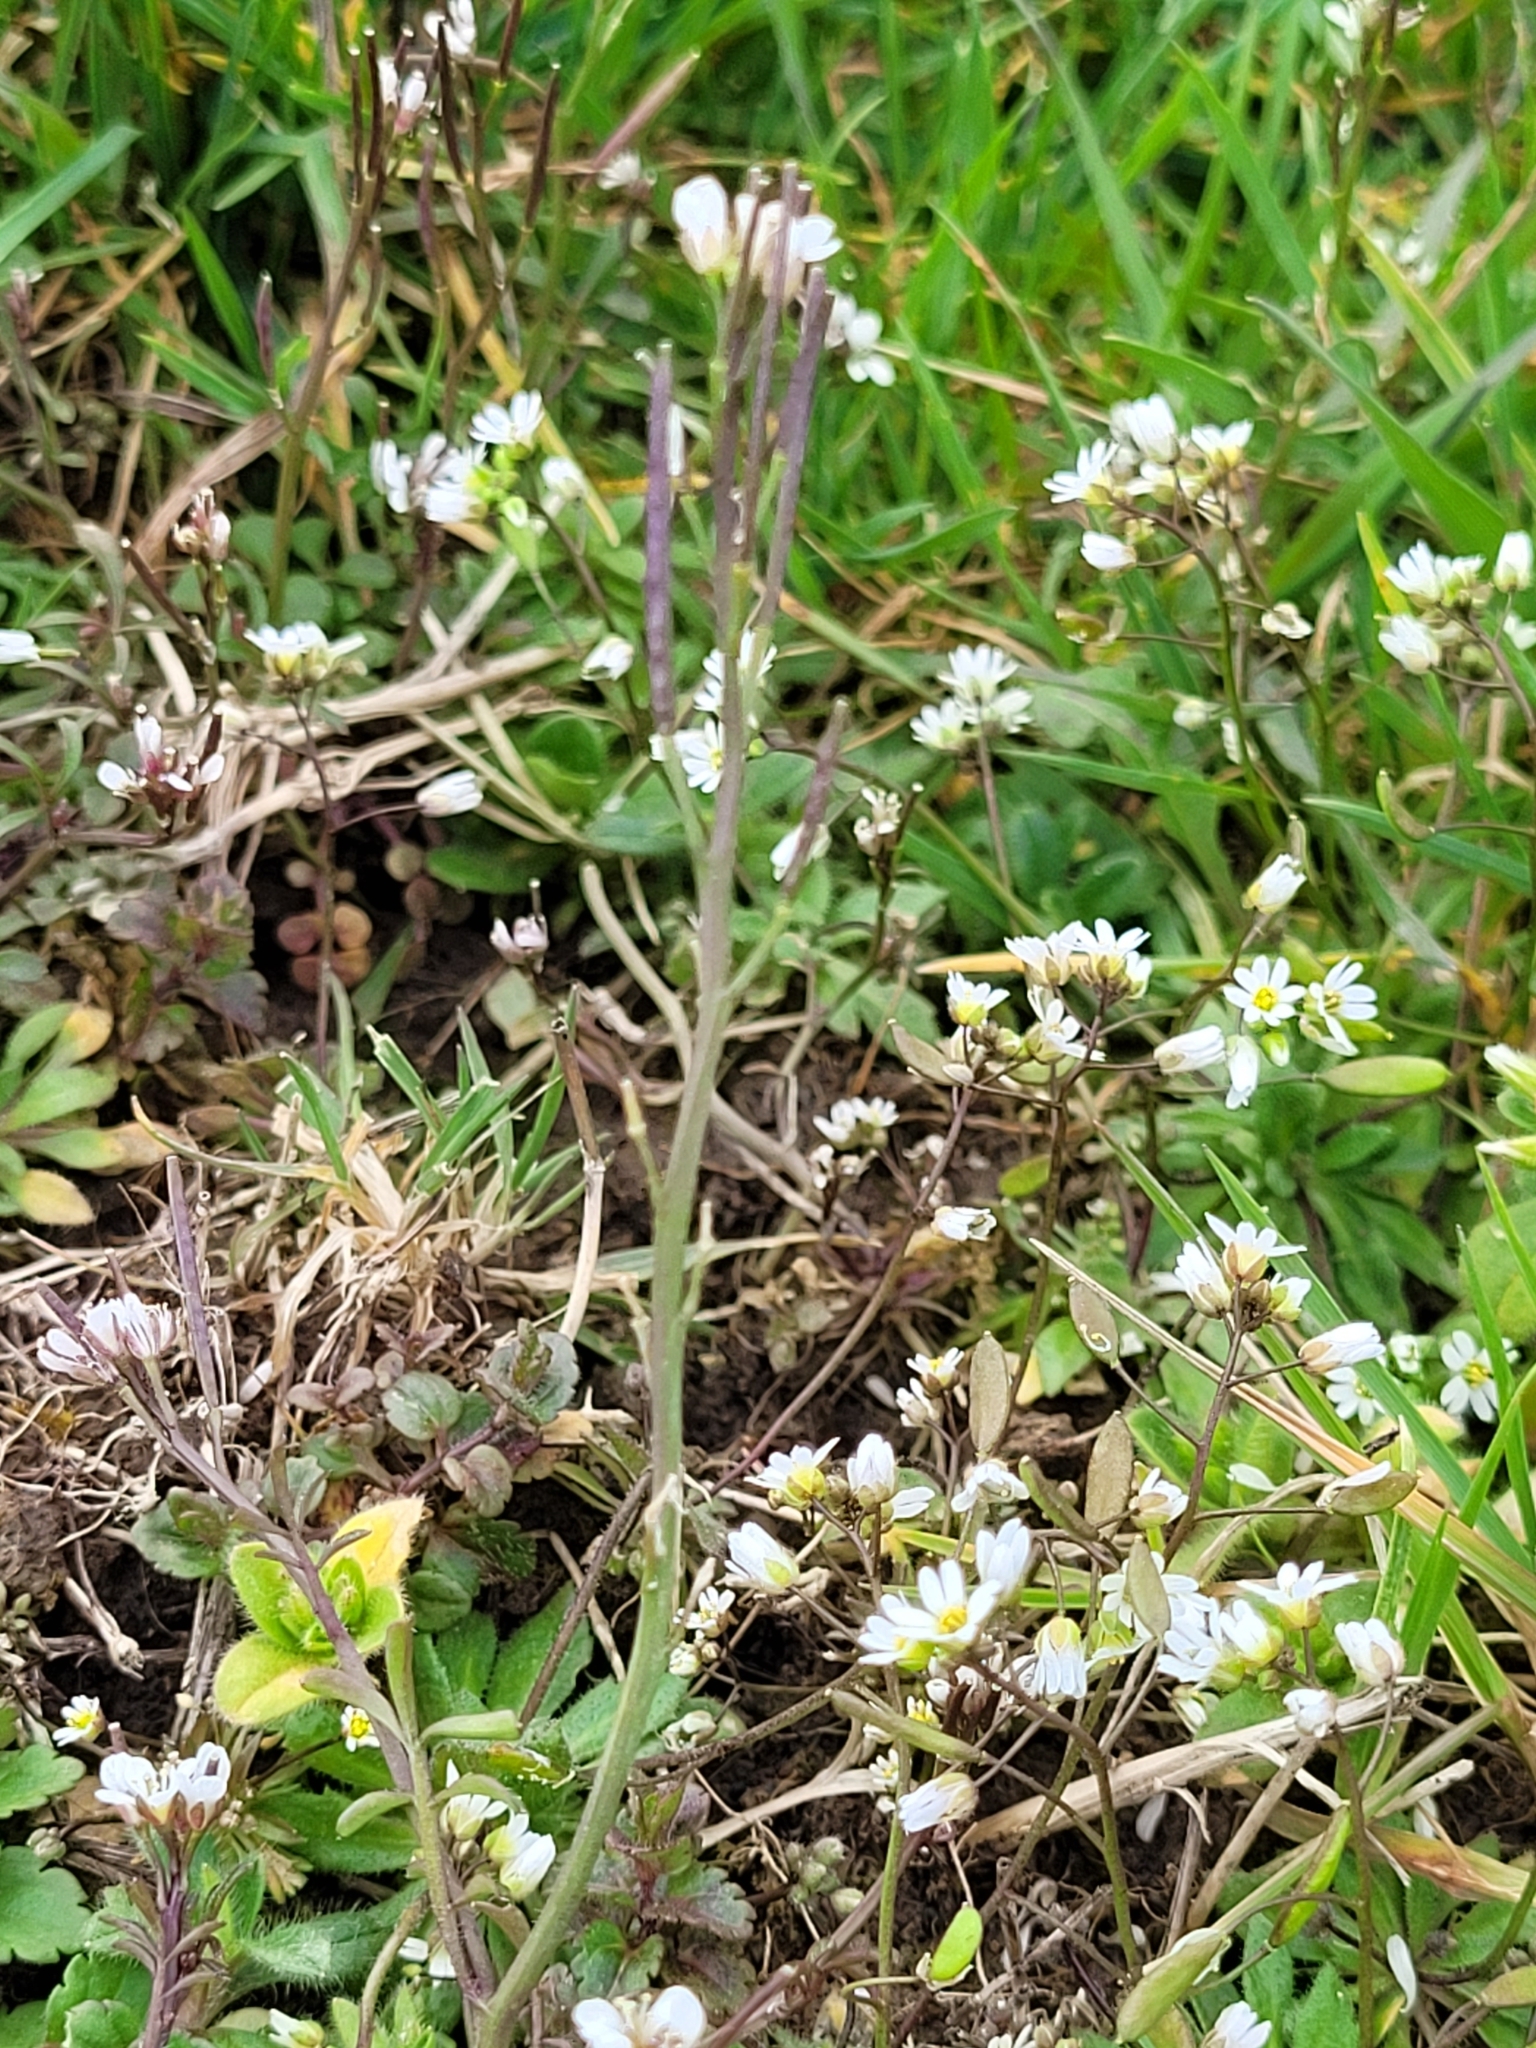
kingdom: Plantae
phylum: Tracheophyta
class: Magnoliopsida
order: Brassicales
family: Brassicaceae
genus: Cardamine
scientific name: Cardamine hirsuta
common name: Hairy bittercress
